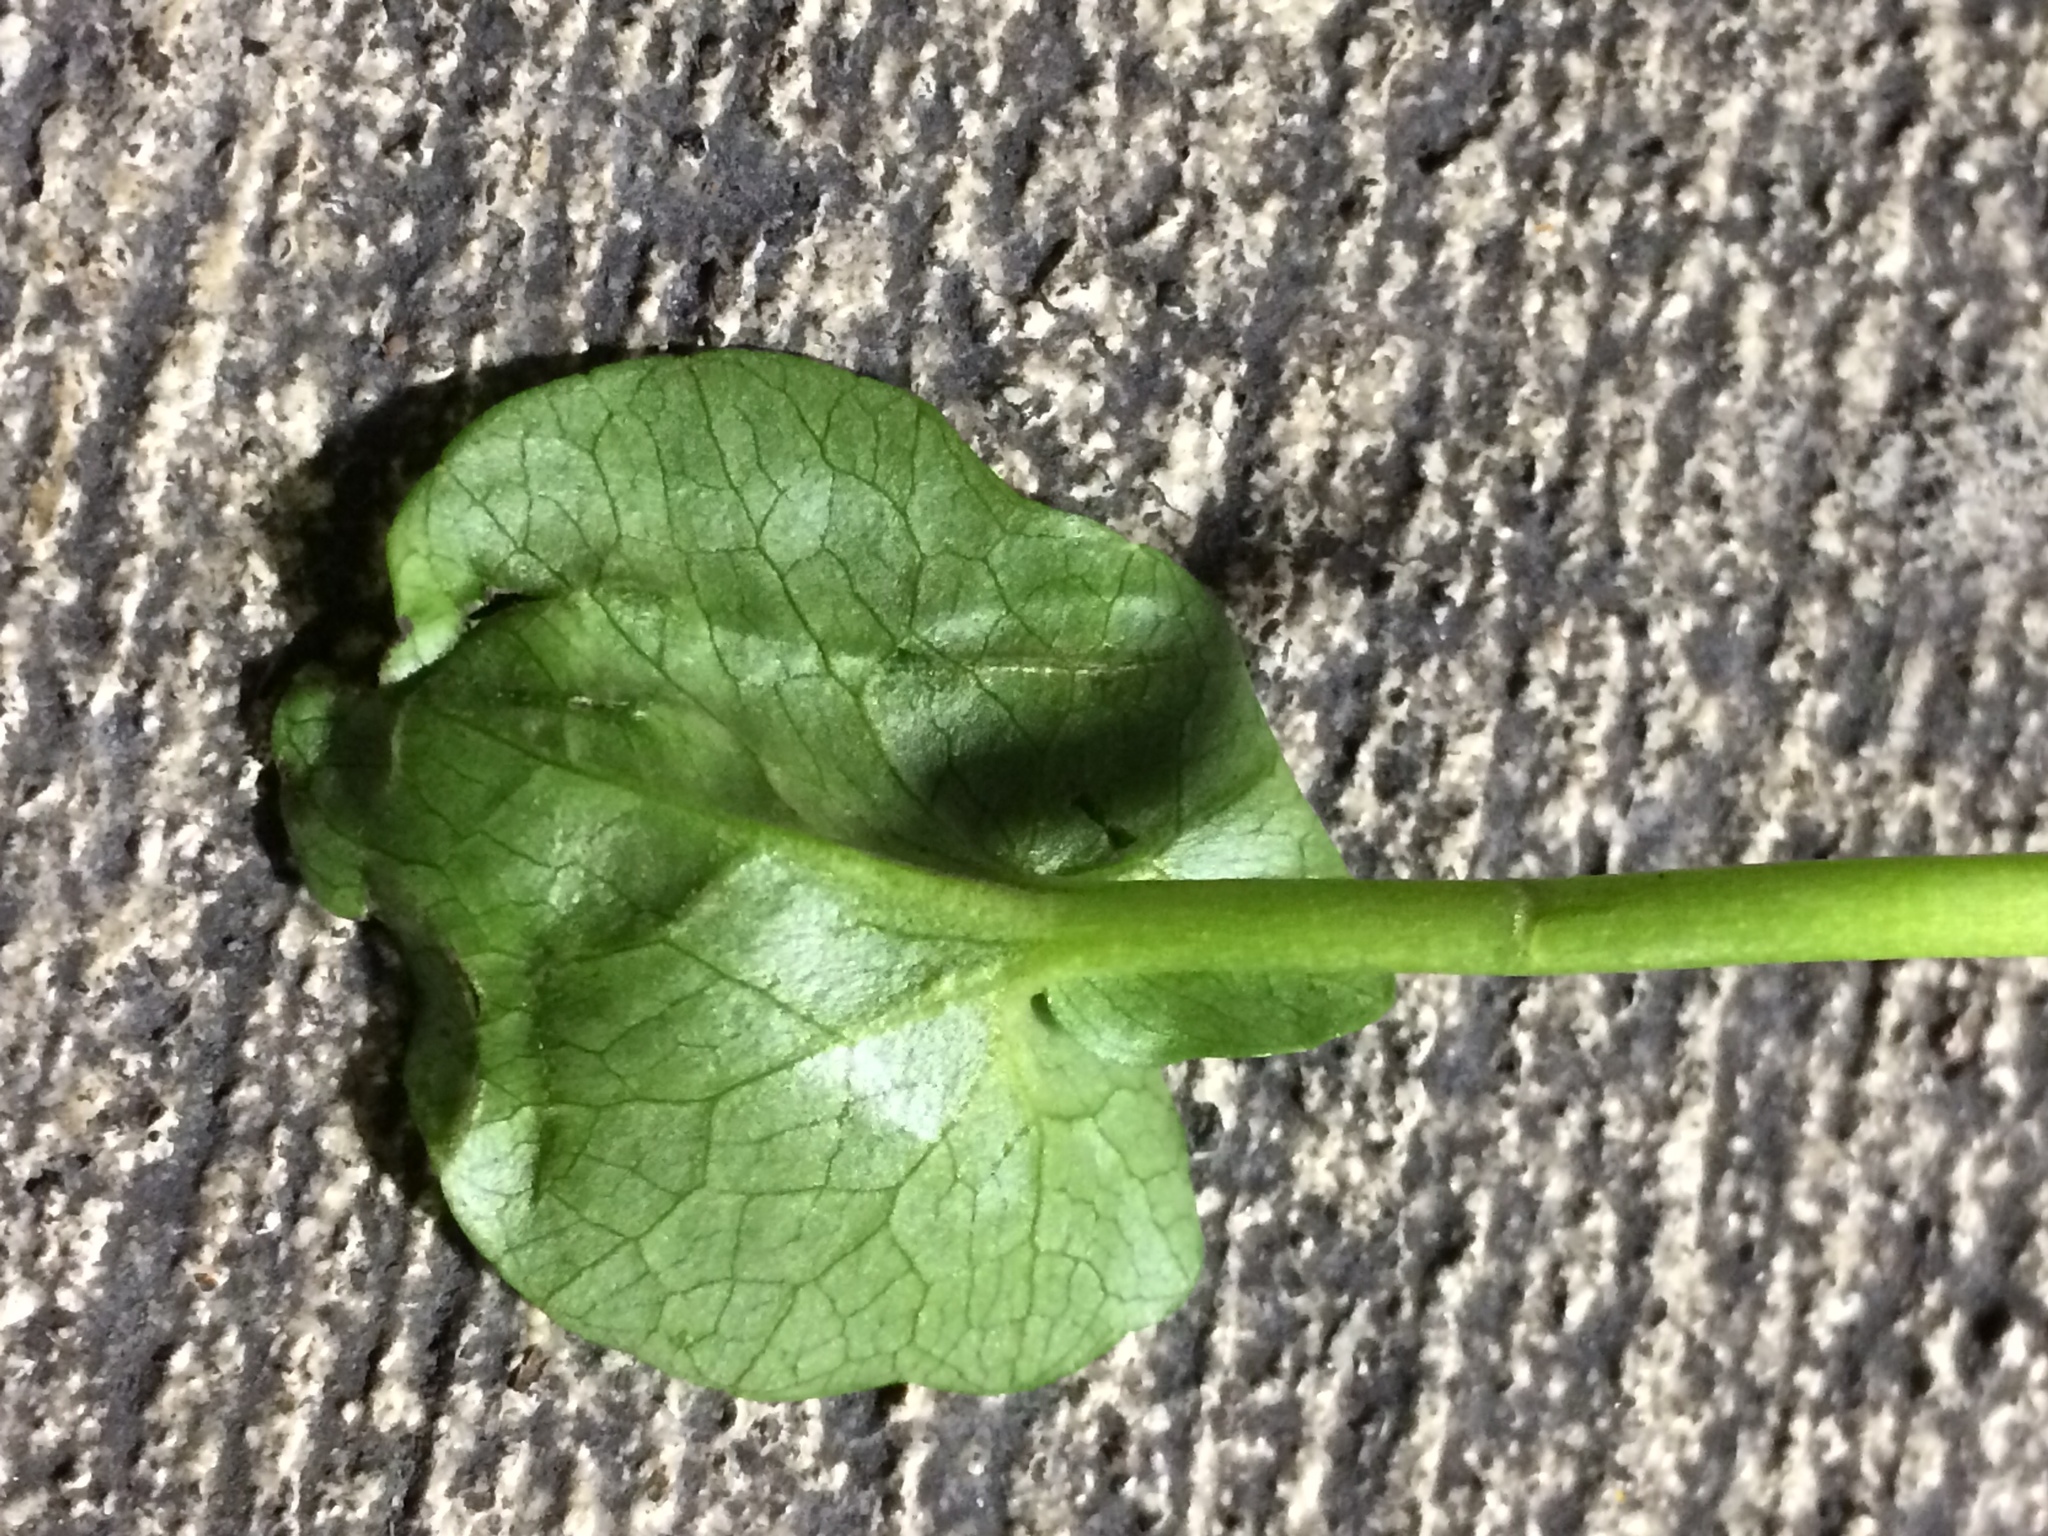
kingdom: Plantae
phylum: Tracheophyta
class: Magnoliopsida
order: Ranunculales
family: Ranunculaceae
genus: Ficaria
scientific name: Ficaria verna
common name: Lesser celandine
